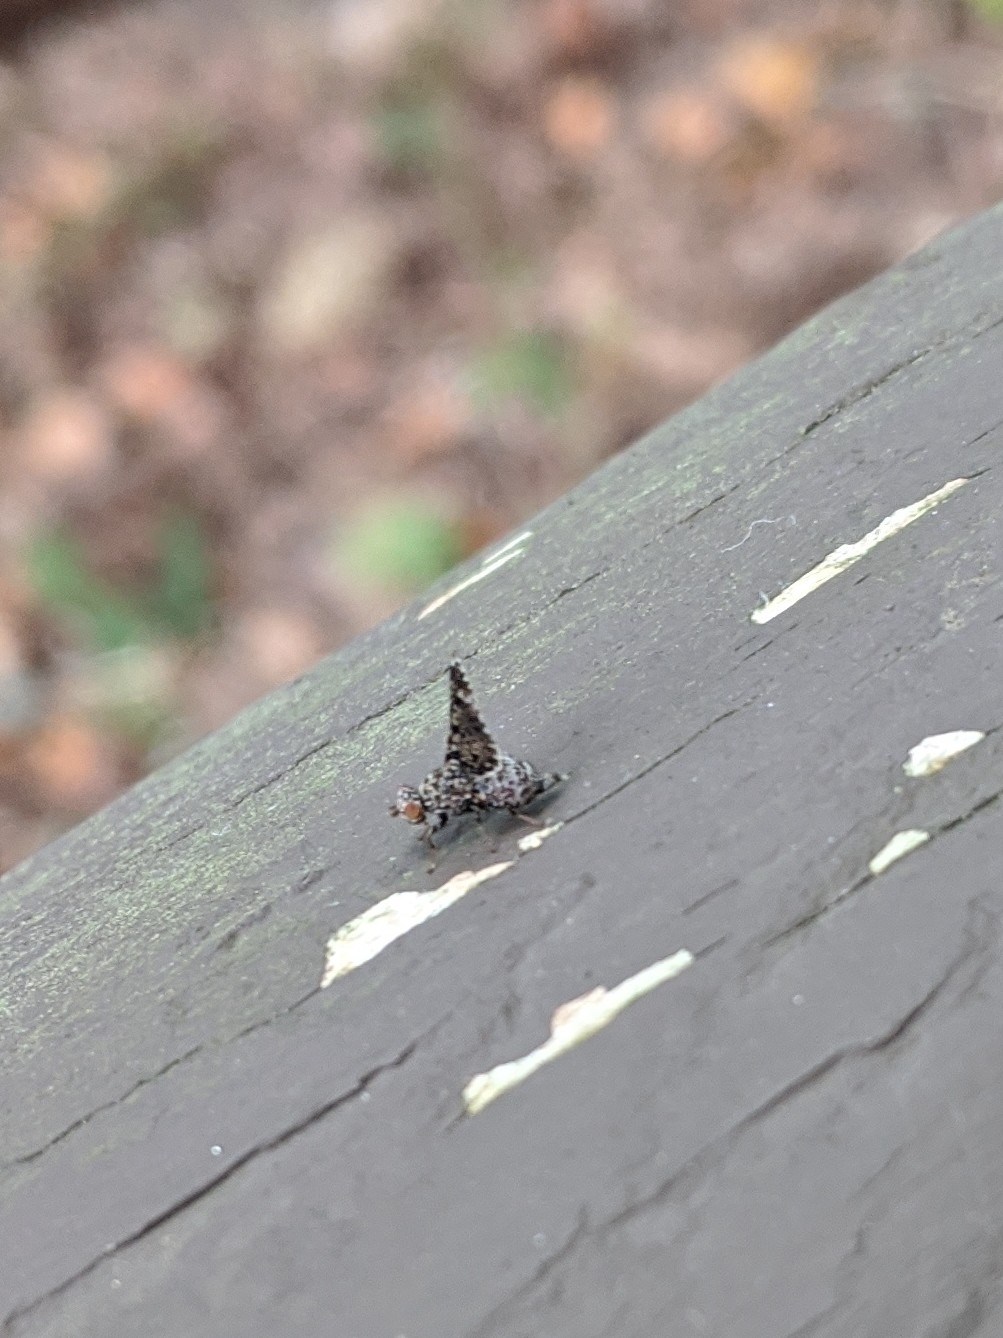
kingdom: Animalia
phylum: Arthropoda
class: Insecta
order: Diptera
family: Ulidiidae
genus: Callopistromyia
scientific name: Callopistromyia annulipes
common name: Peacock fly
